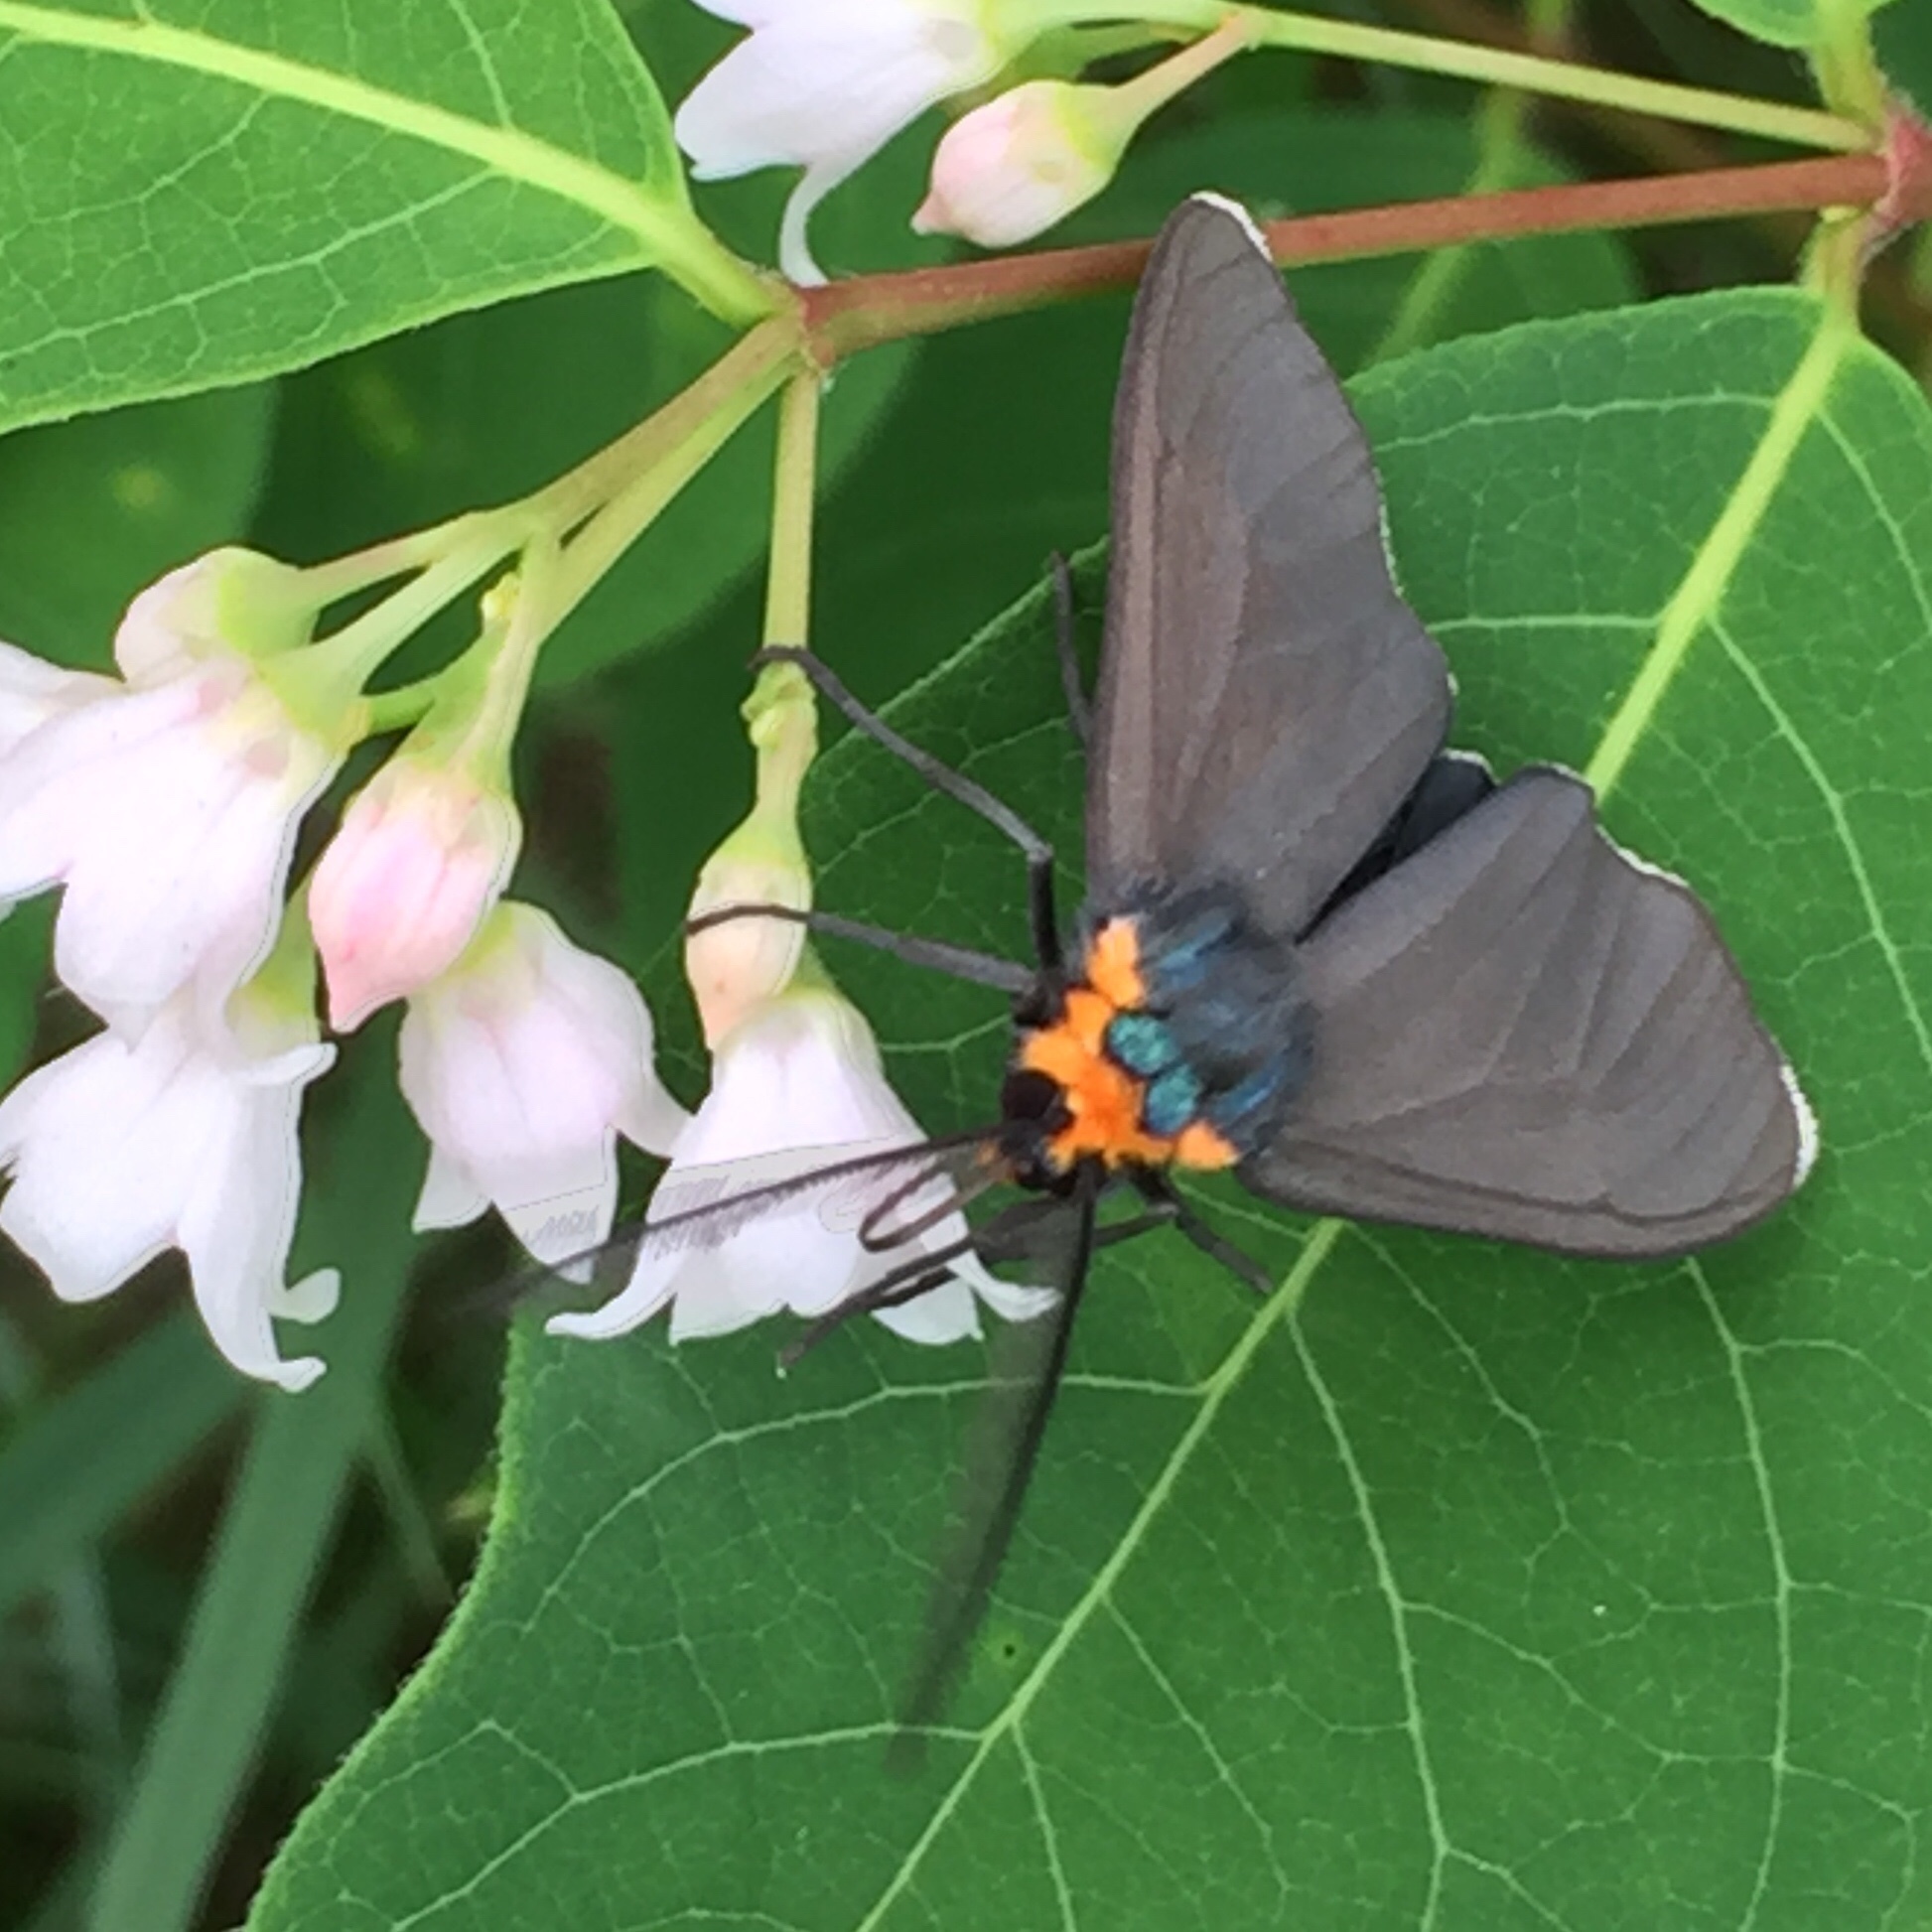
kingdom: Animalia
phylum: Arthropoda
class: Insecta
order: Lepidoptera
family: Erebidae
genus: Ctenucha
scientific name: Ctenucha virginica
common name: Virginia ctenucha moth
